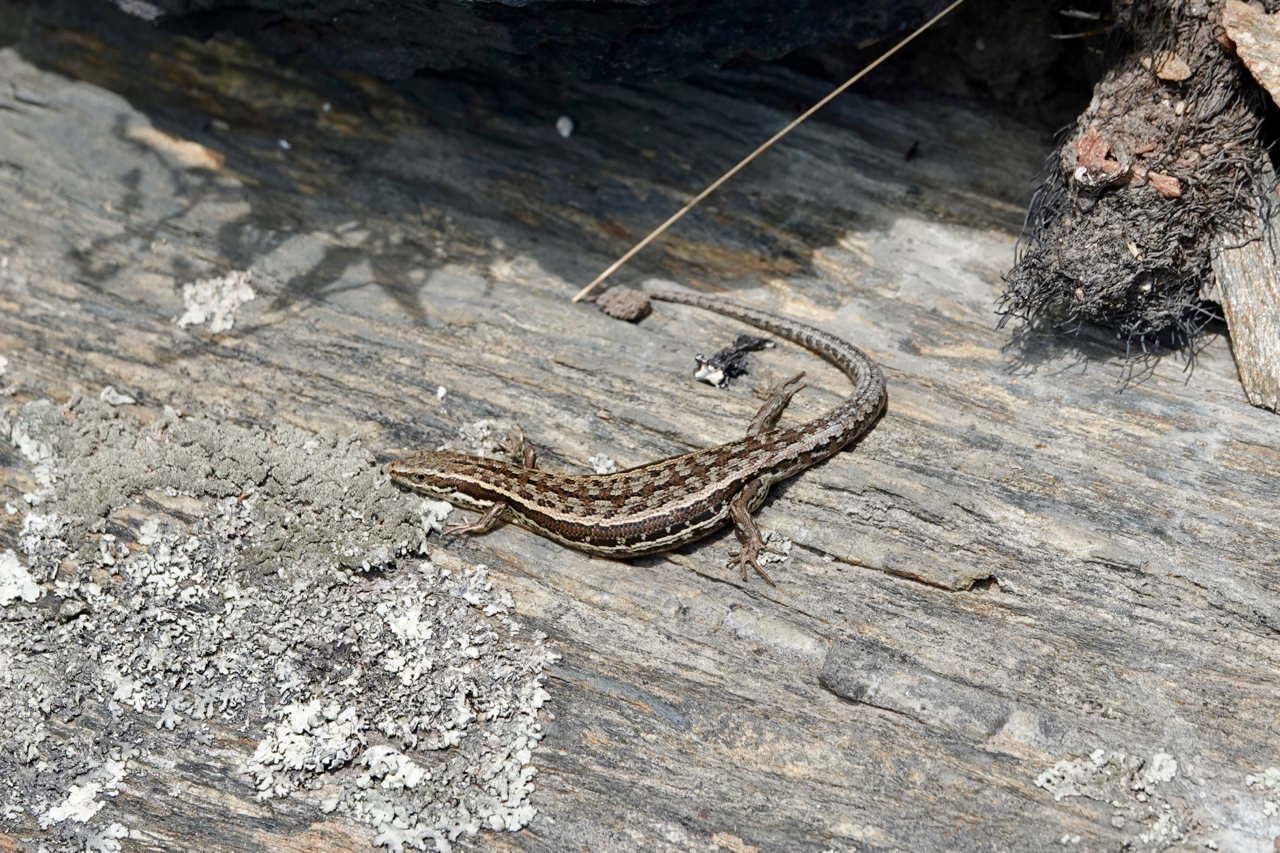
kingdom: Animalia
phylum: Chordata
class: Squamata
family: Scincidae
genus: Oligosoma
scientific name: Oligosoma maccanni
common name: Mccann’s skink
